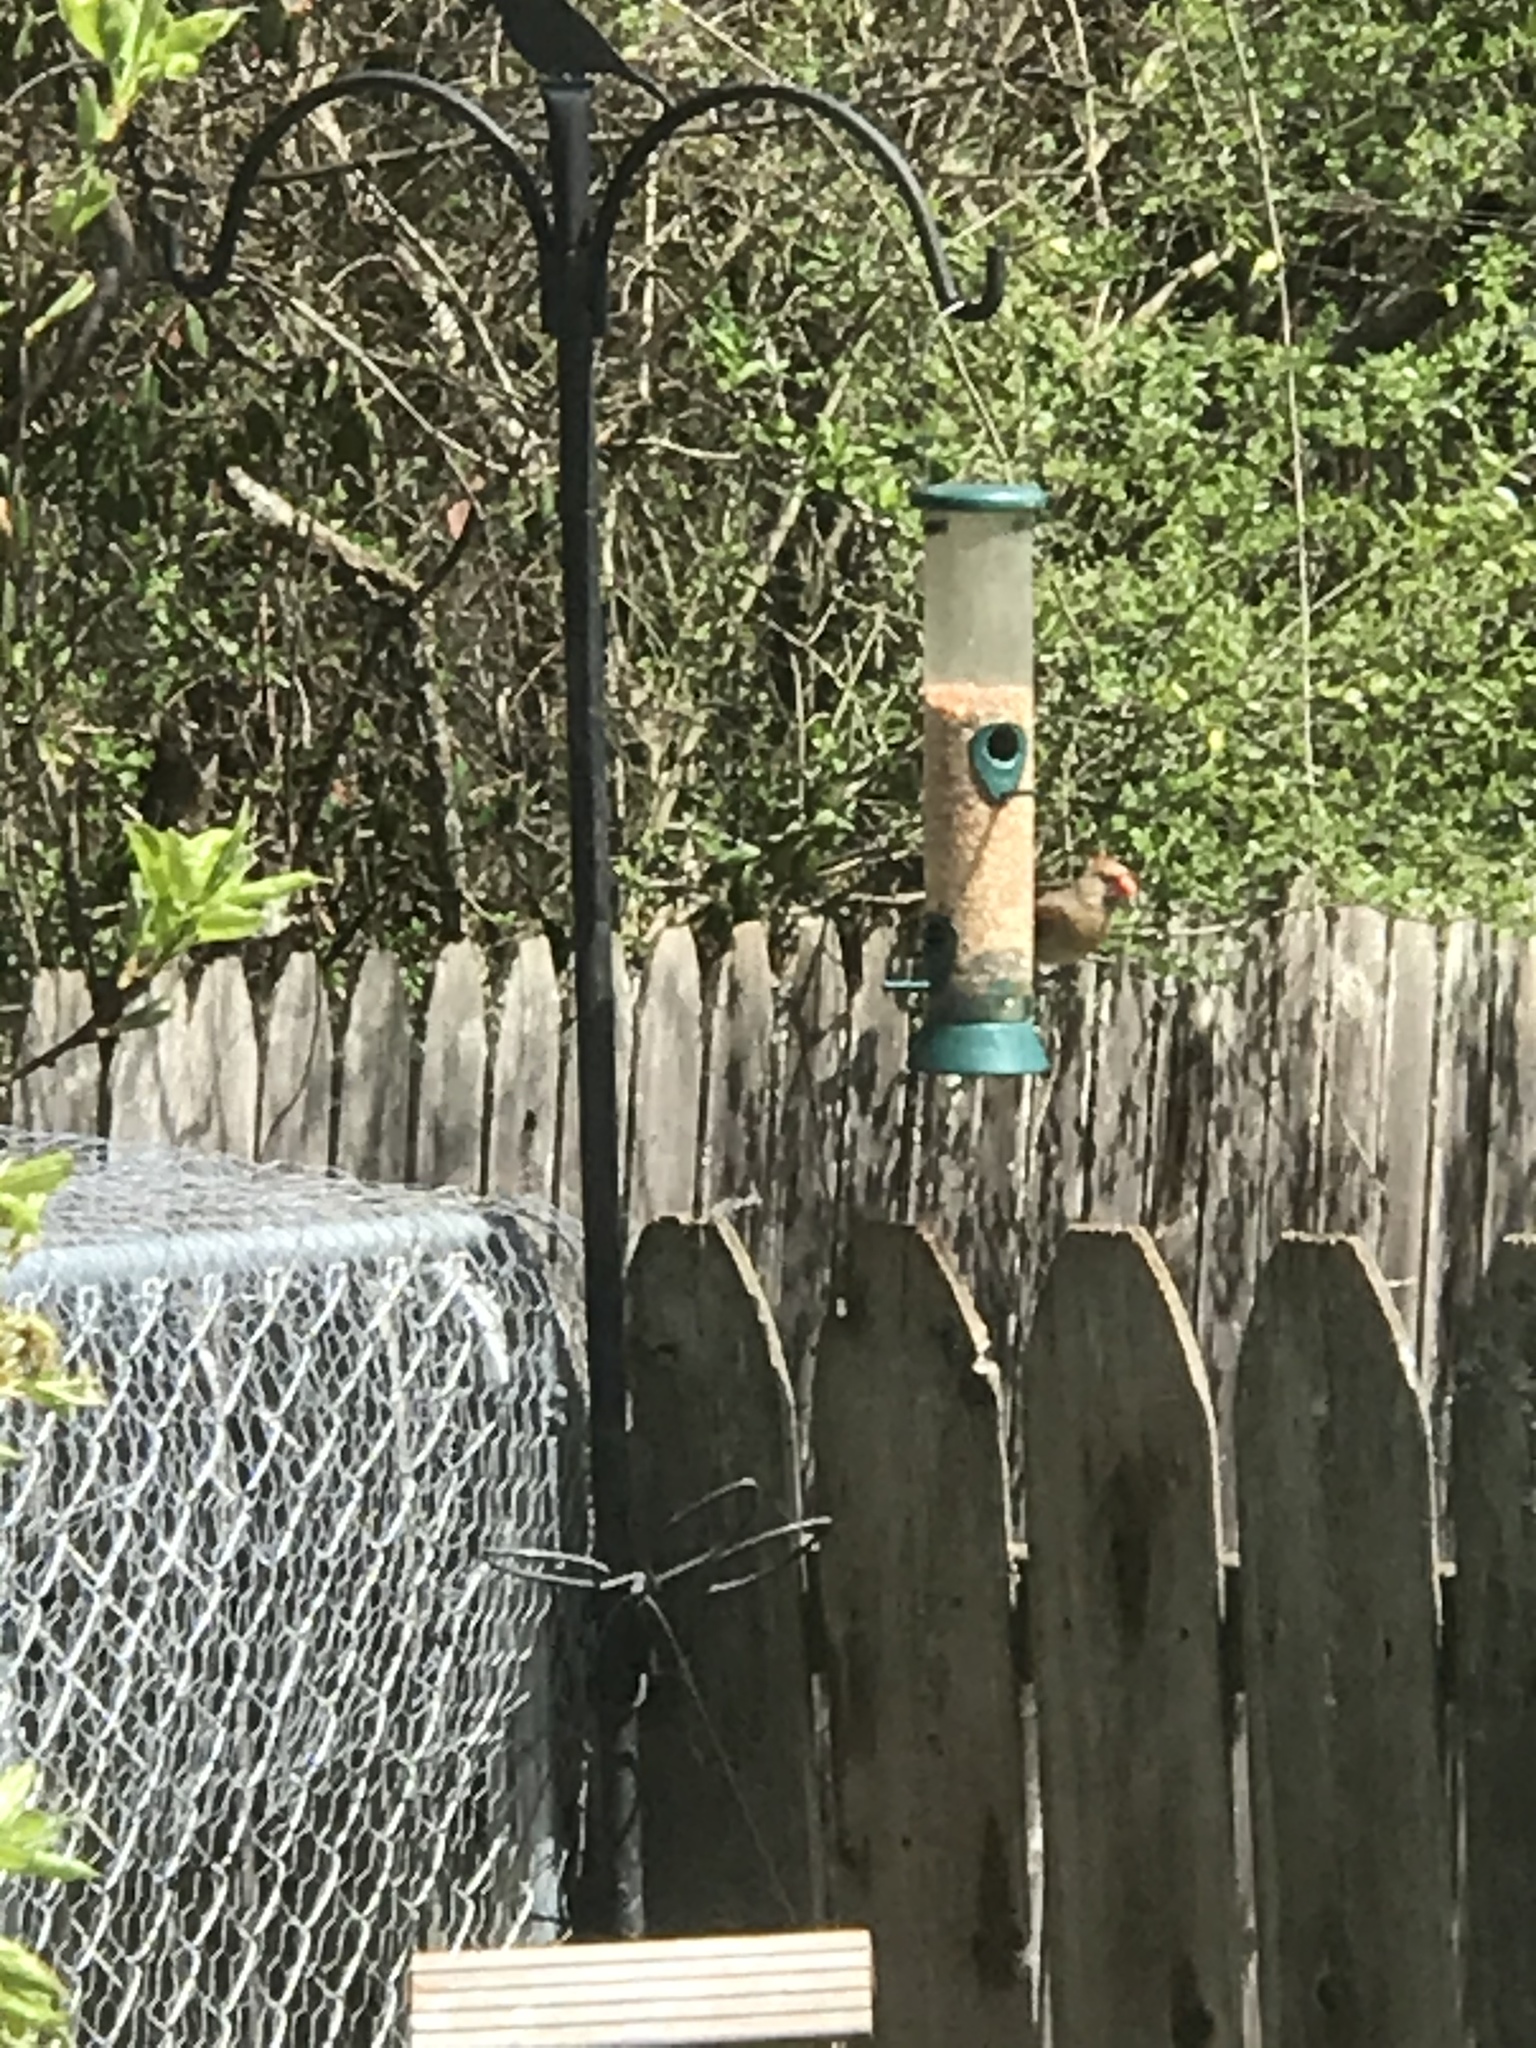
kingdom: Animalia
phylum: Chordata
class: Aves
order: Passeriformes
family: Cardinalidae
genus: Cardinalis
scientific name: Cardinalis cardinalis
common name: Northern cardinal
